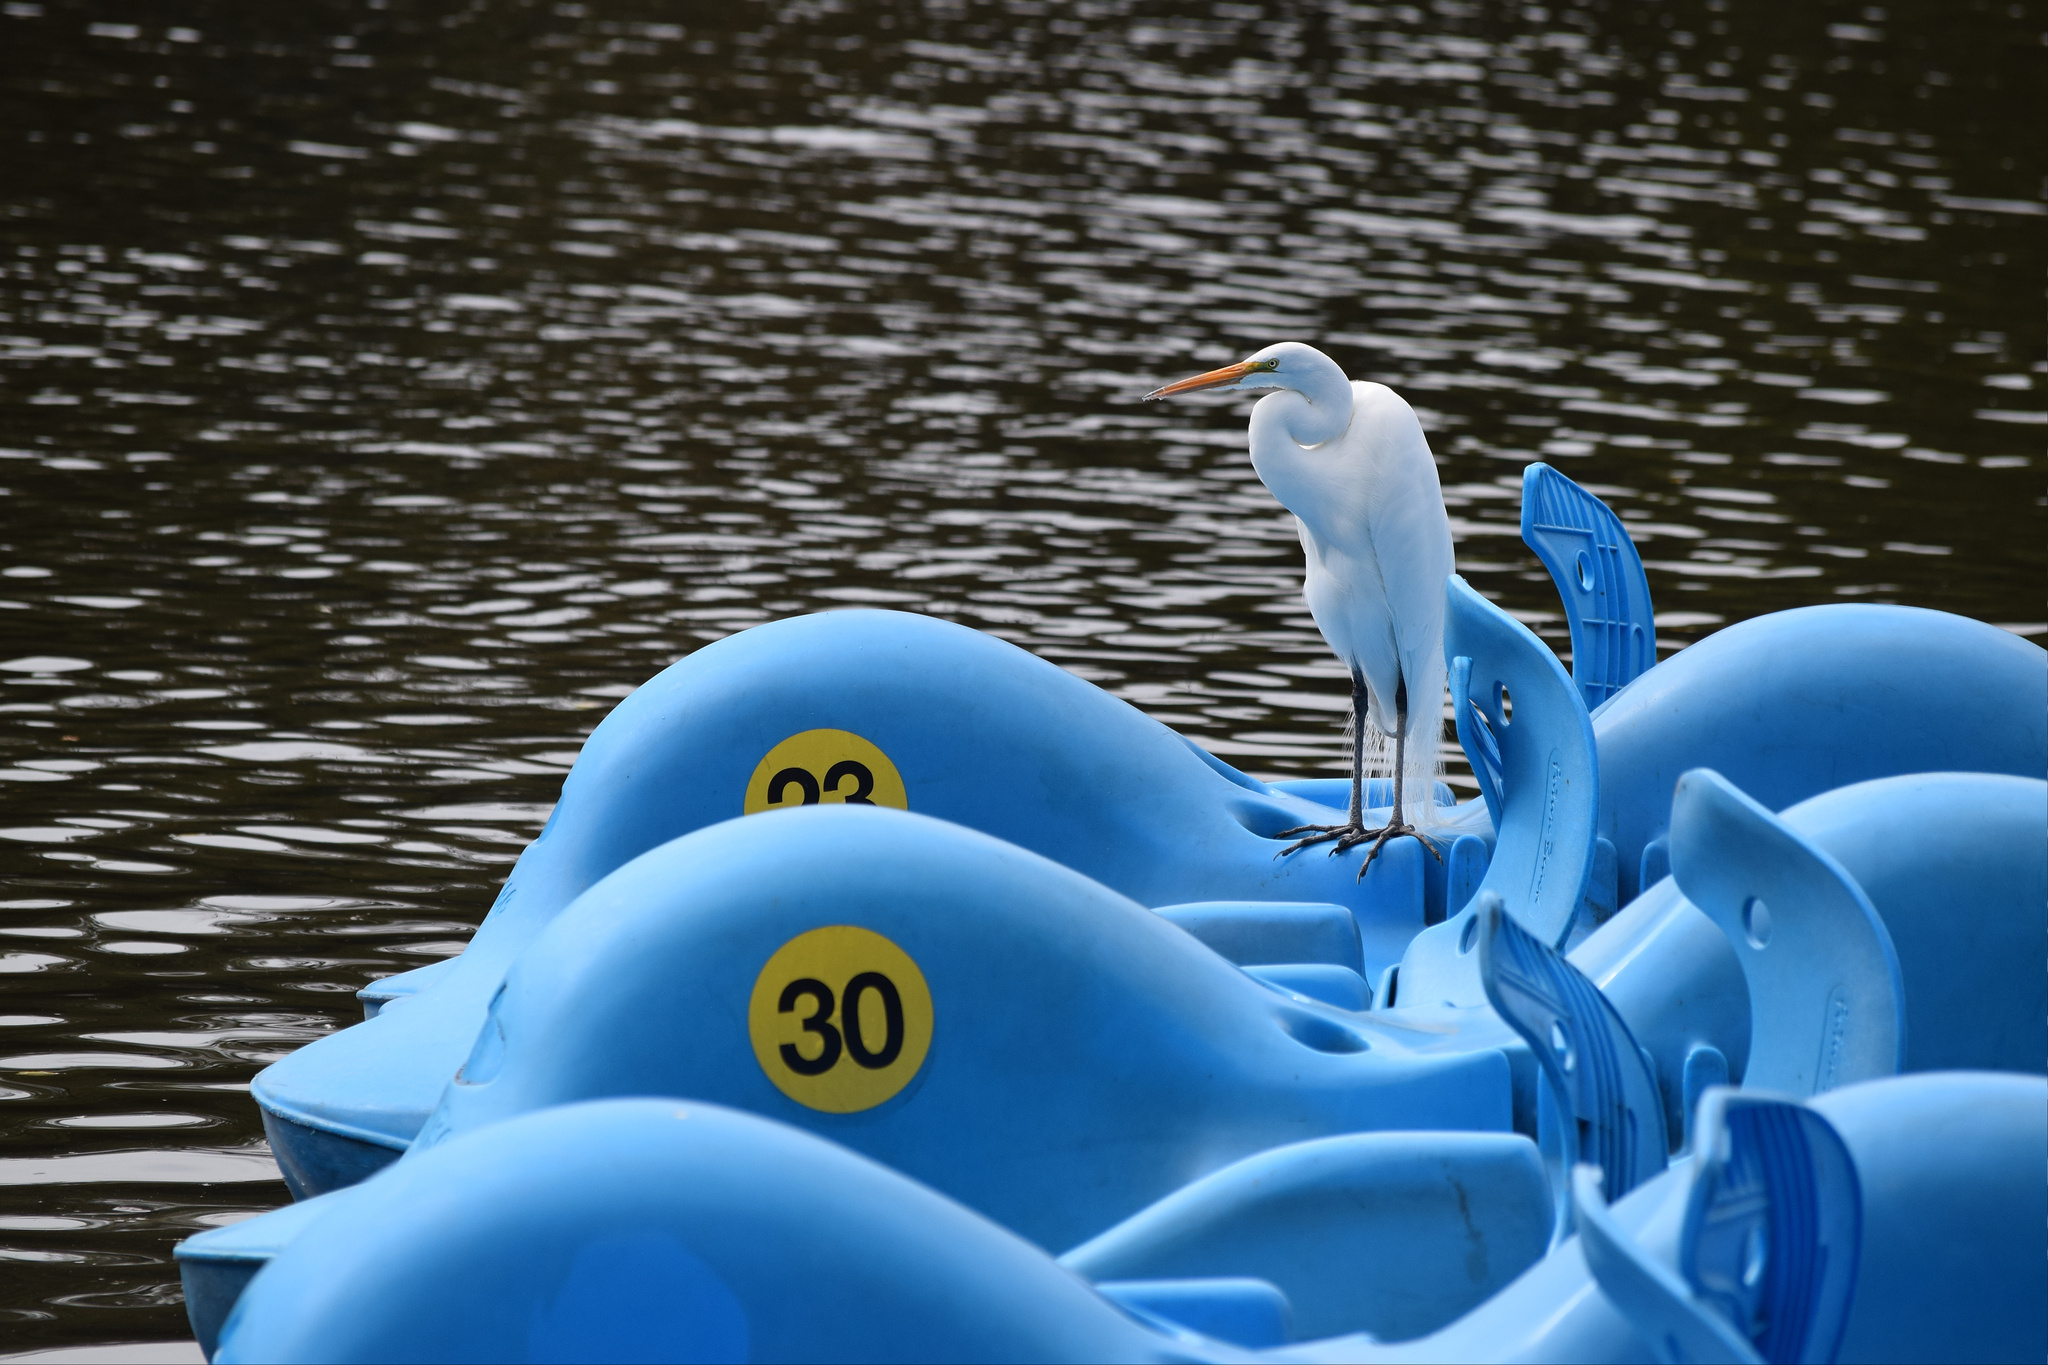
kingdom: Animalia
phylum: Chordata
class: Aves
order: Pelecaniformes
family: Ardeidae
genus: Ardea
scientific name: Ardea alba
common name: Great egret
